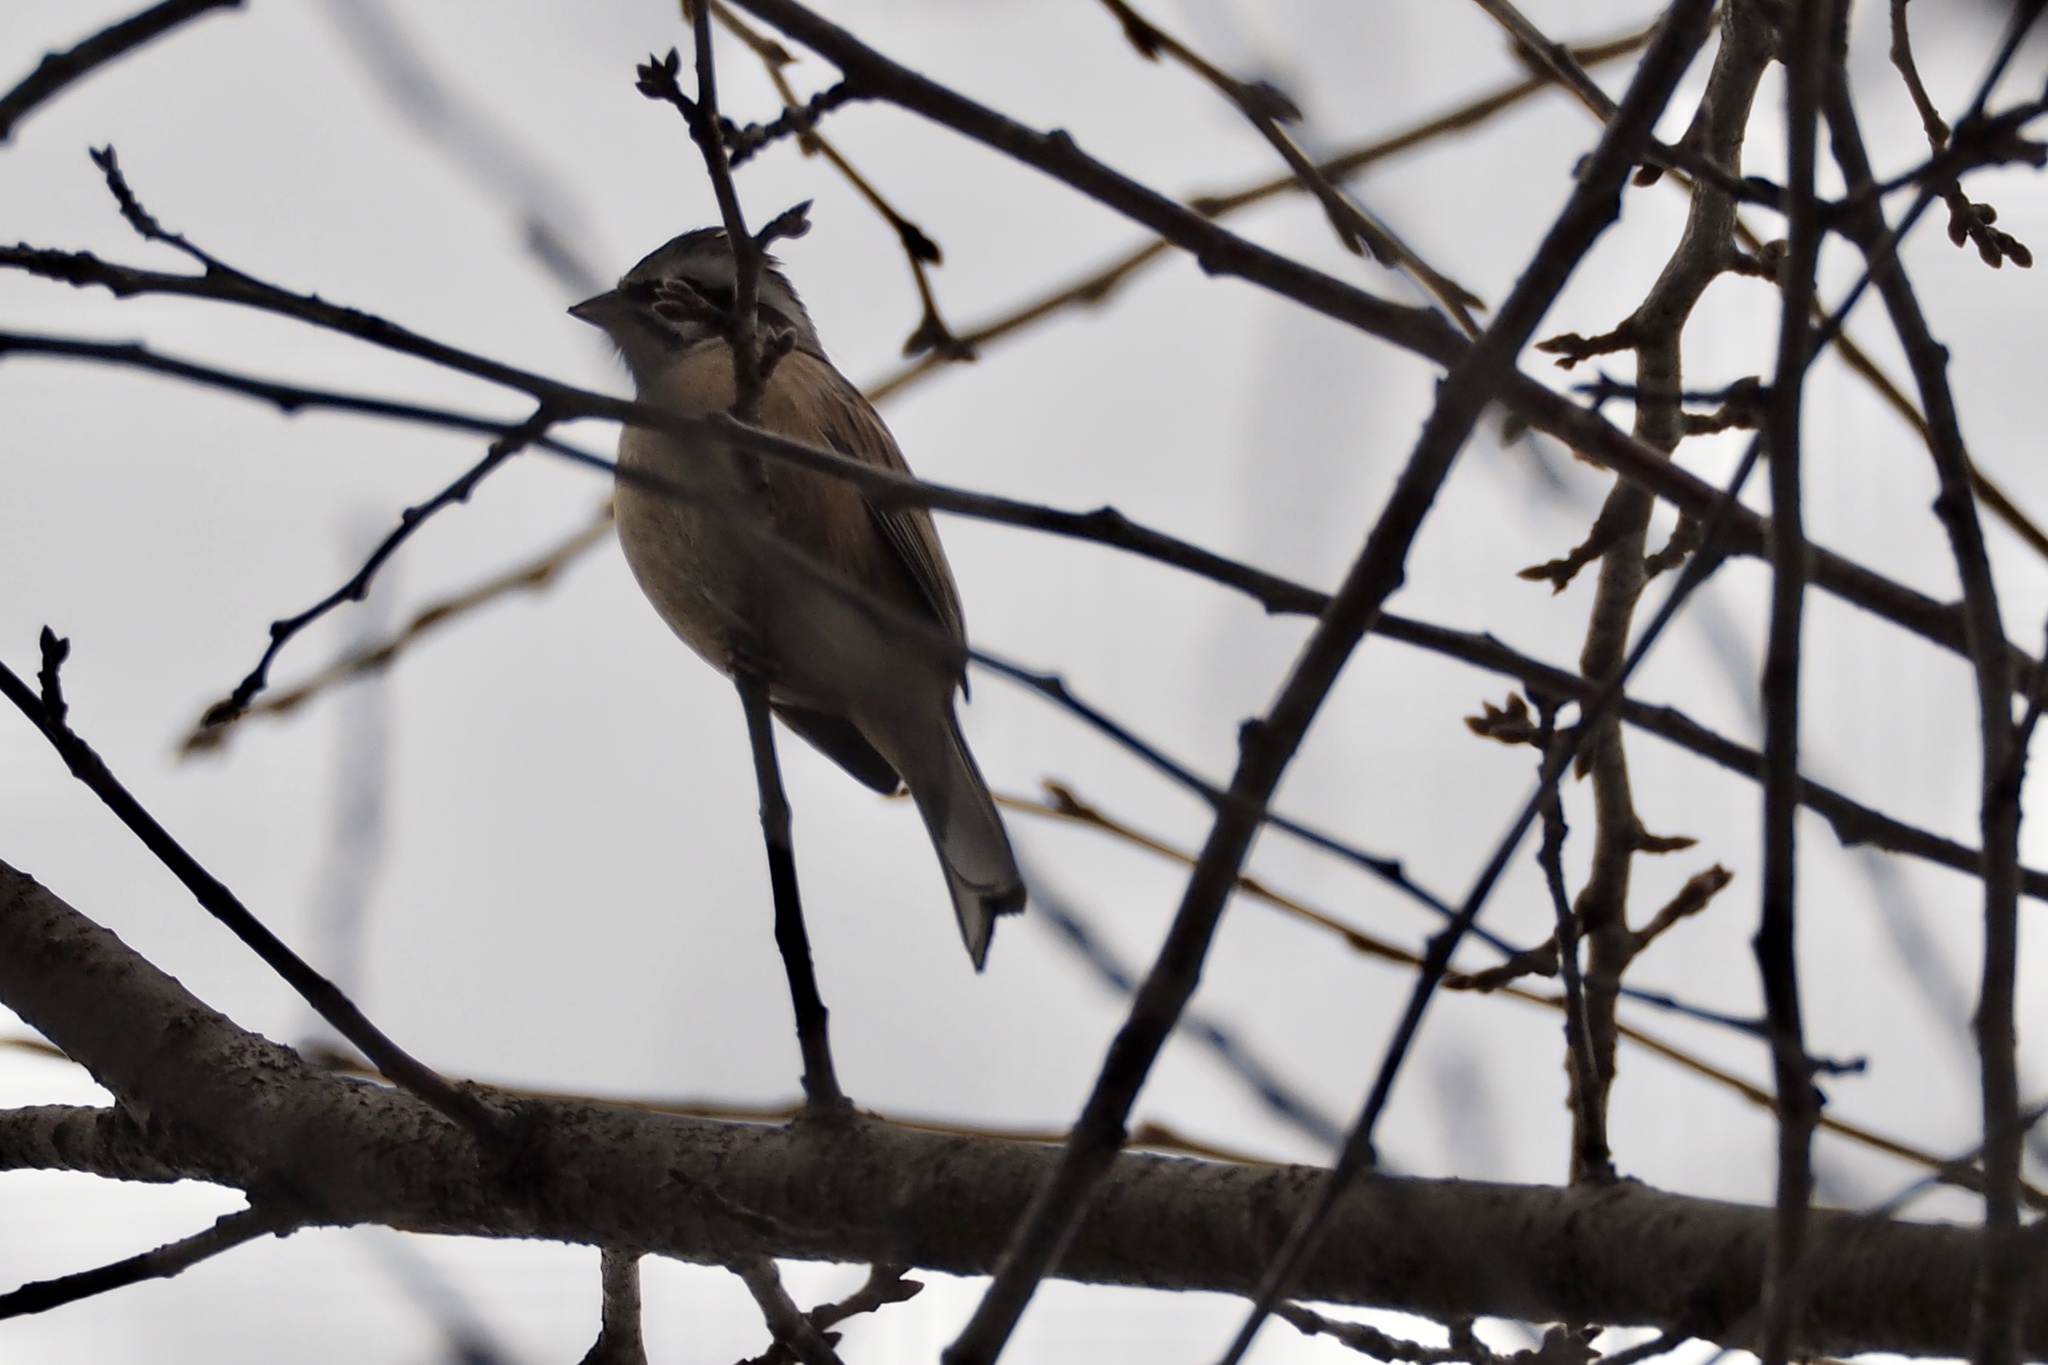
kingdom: Animalia
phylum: Chordata
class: Aves
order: Passeriformes
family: Emberizidae
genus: Emberiza
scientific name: Emberiza cioides
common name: Meadow bunting
